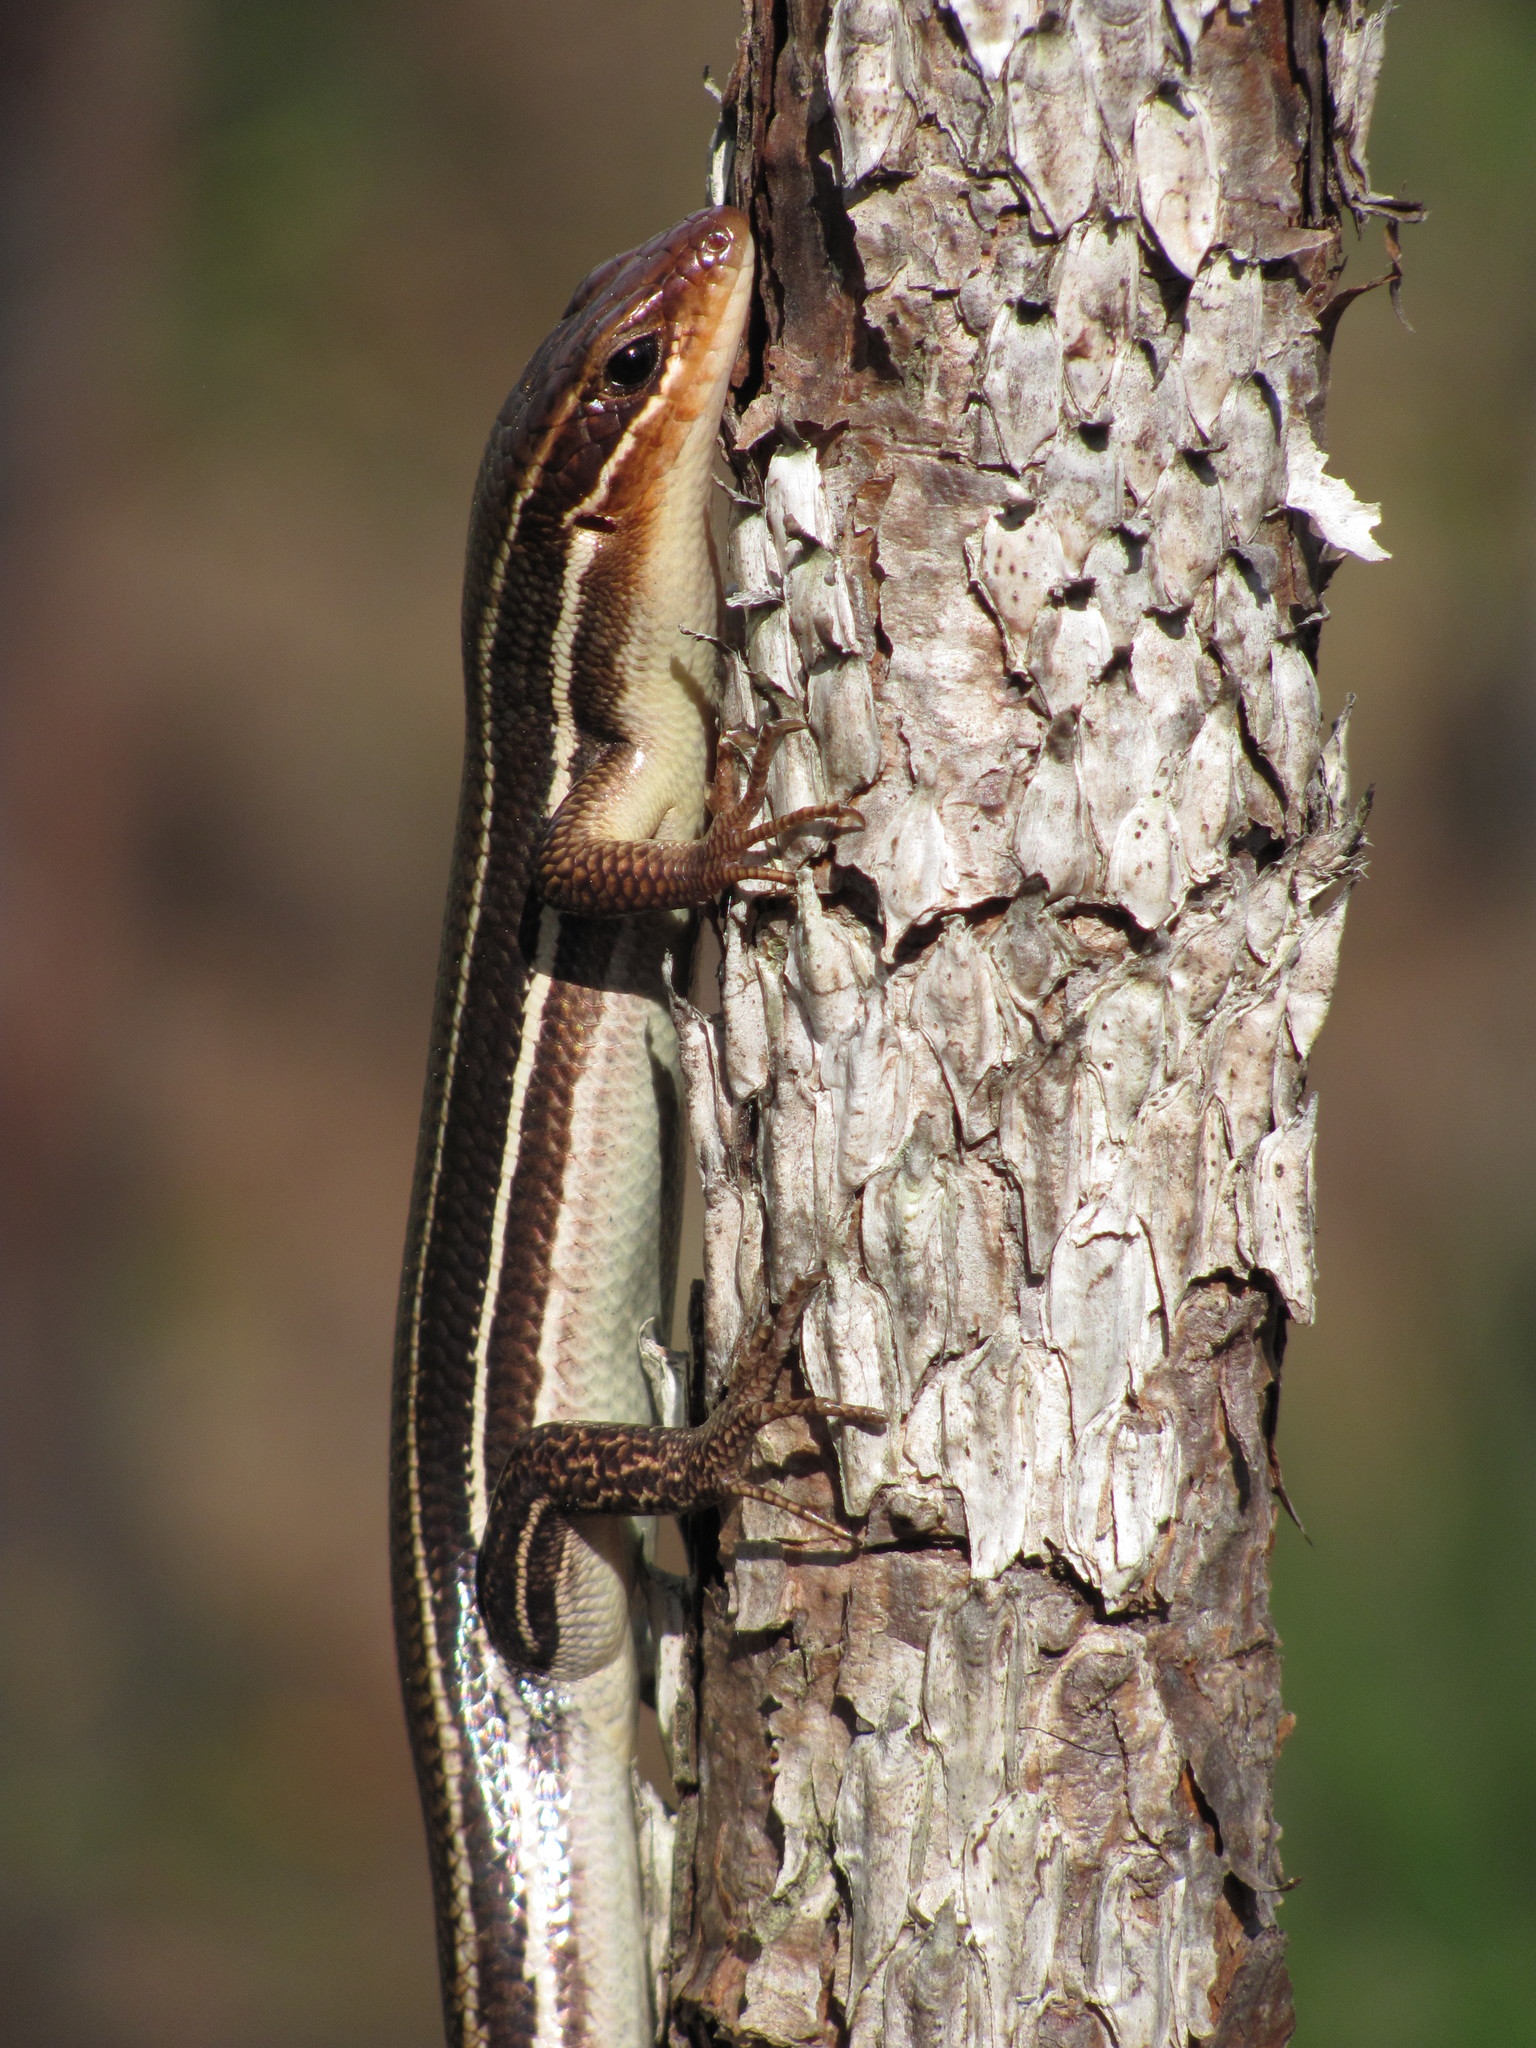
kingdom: Animalia
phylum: Chordata
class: Squamata
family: Scincidae
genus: Plestiodon
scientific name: Plestiodon laticeps
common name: Broadhead skink
